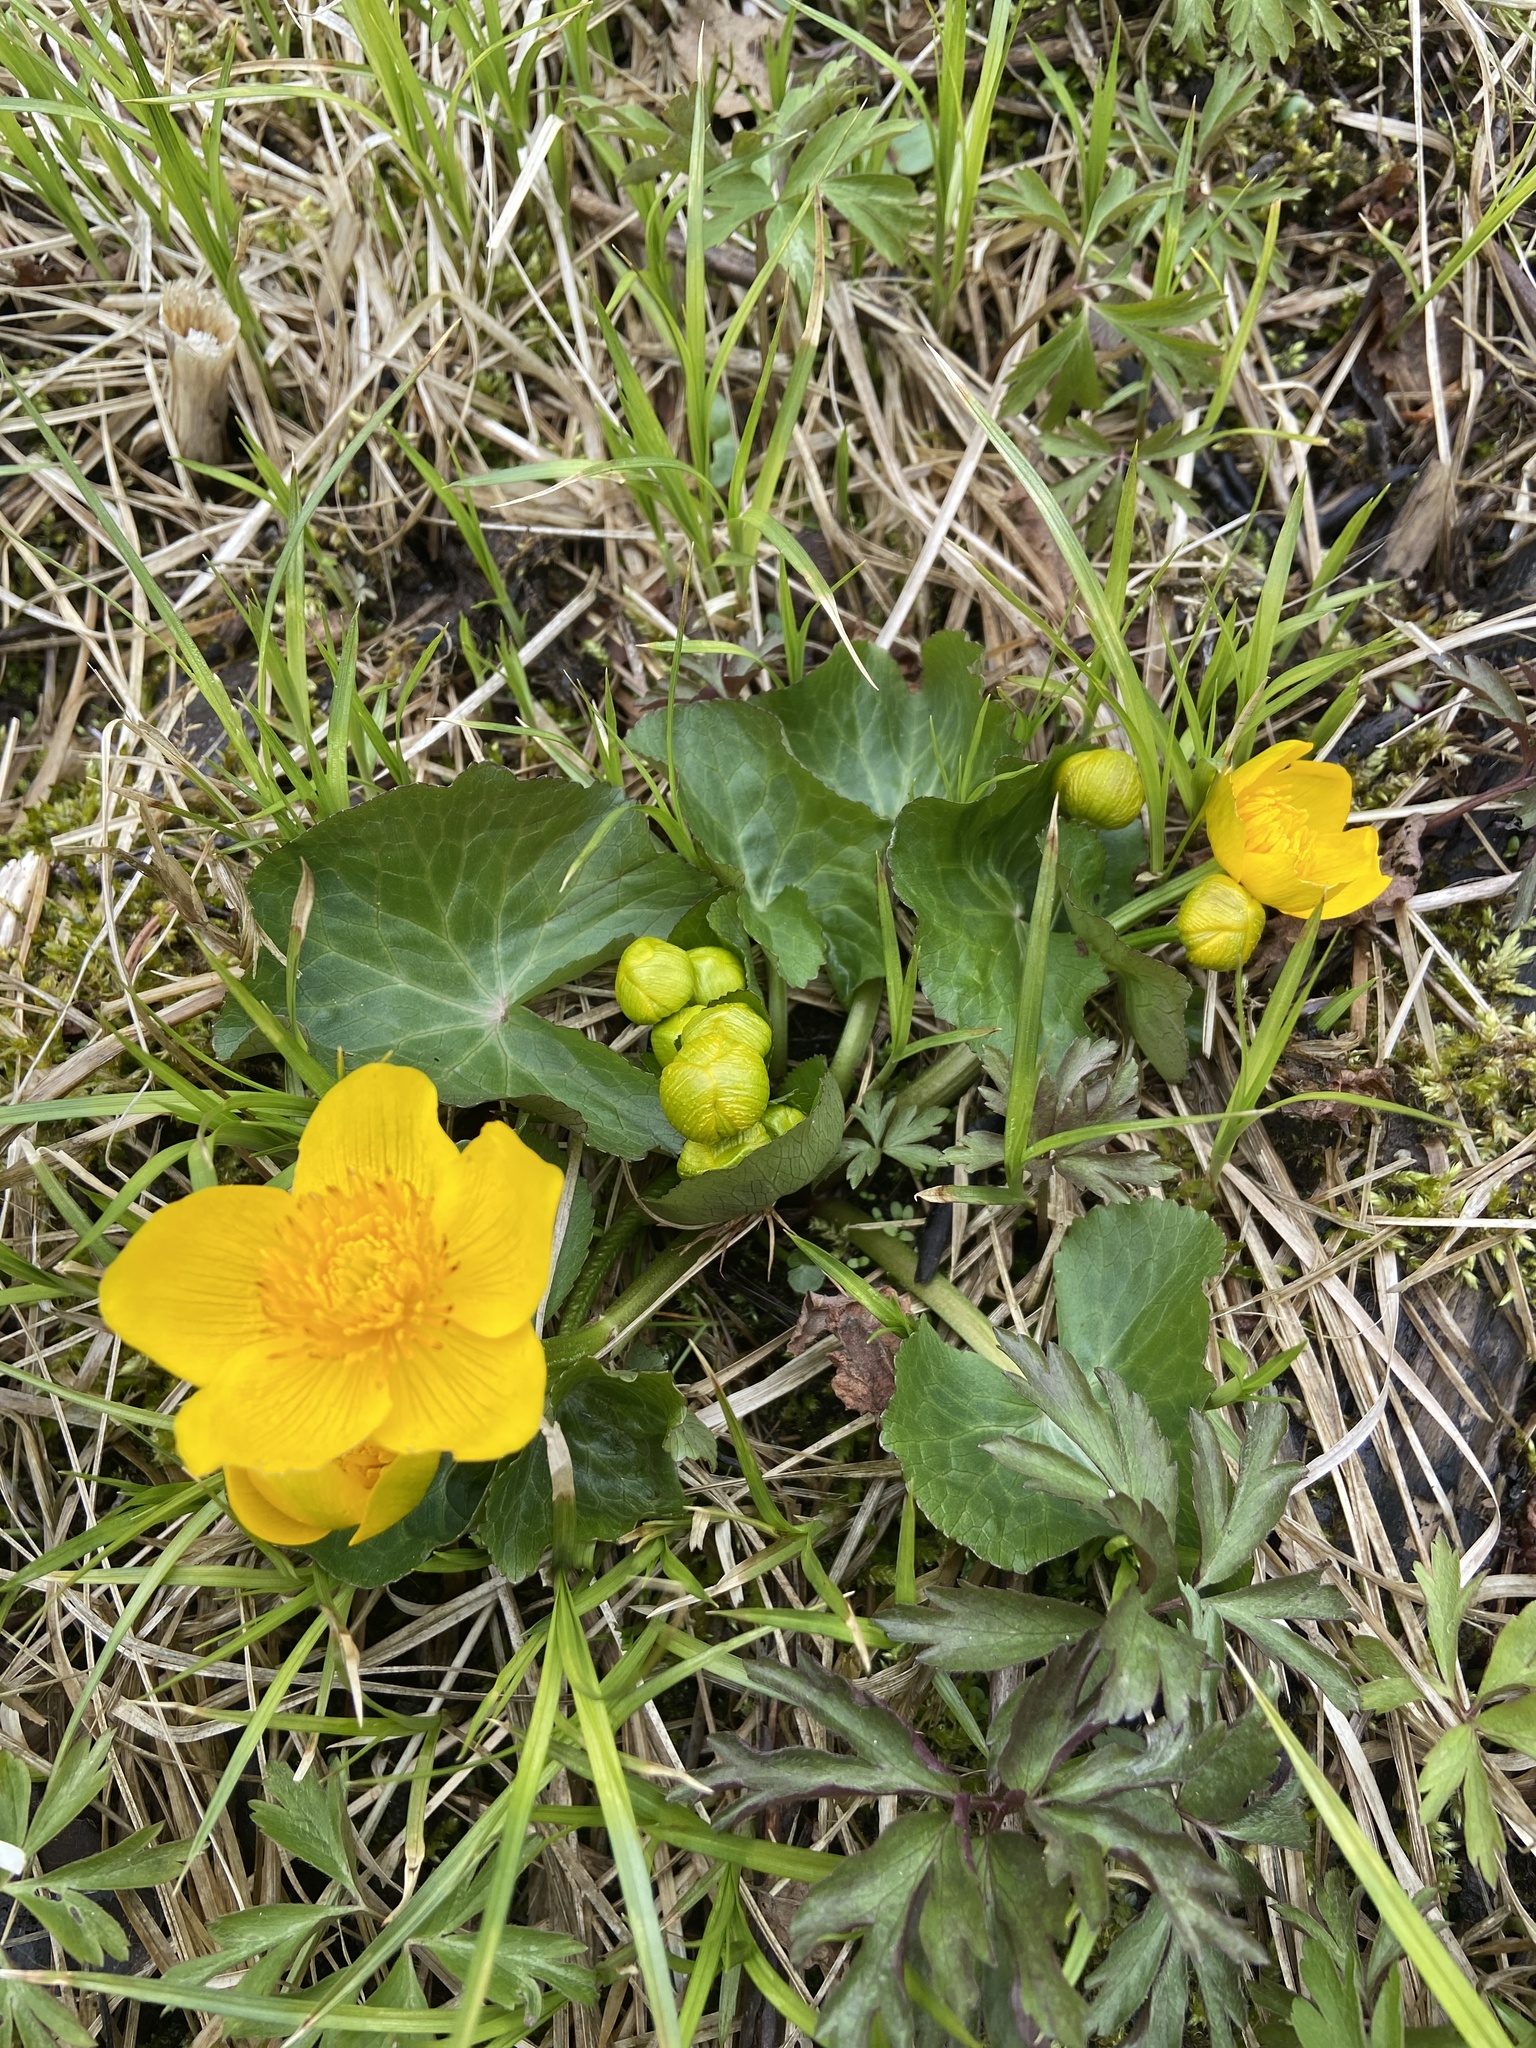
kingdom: Plantae
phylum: Tracheophyta
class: Magnoliopsida
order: Ranunculales
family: Ranunculaceae
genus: Caltha
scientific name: Caltha palustris
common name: Marsh marigold
